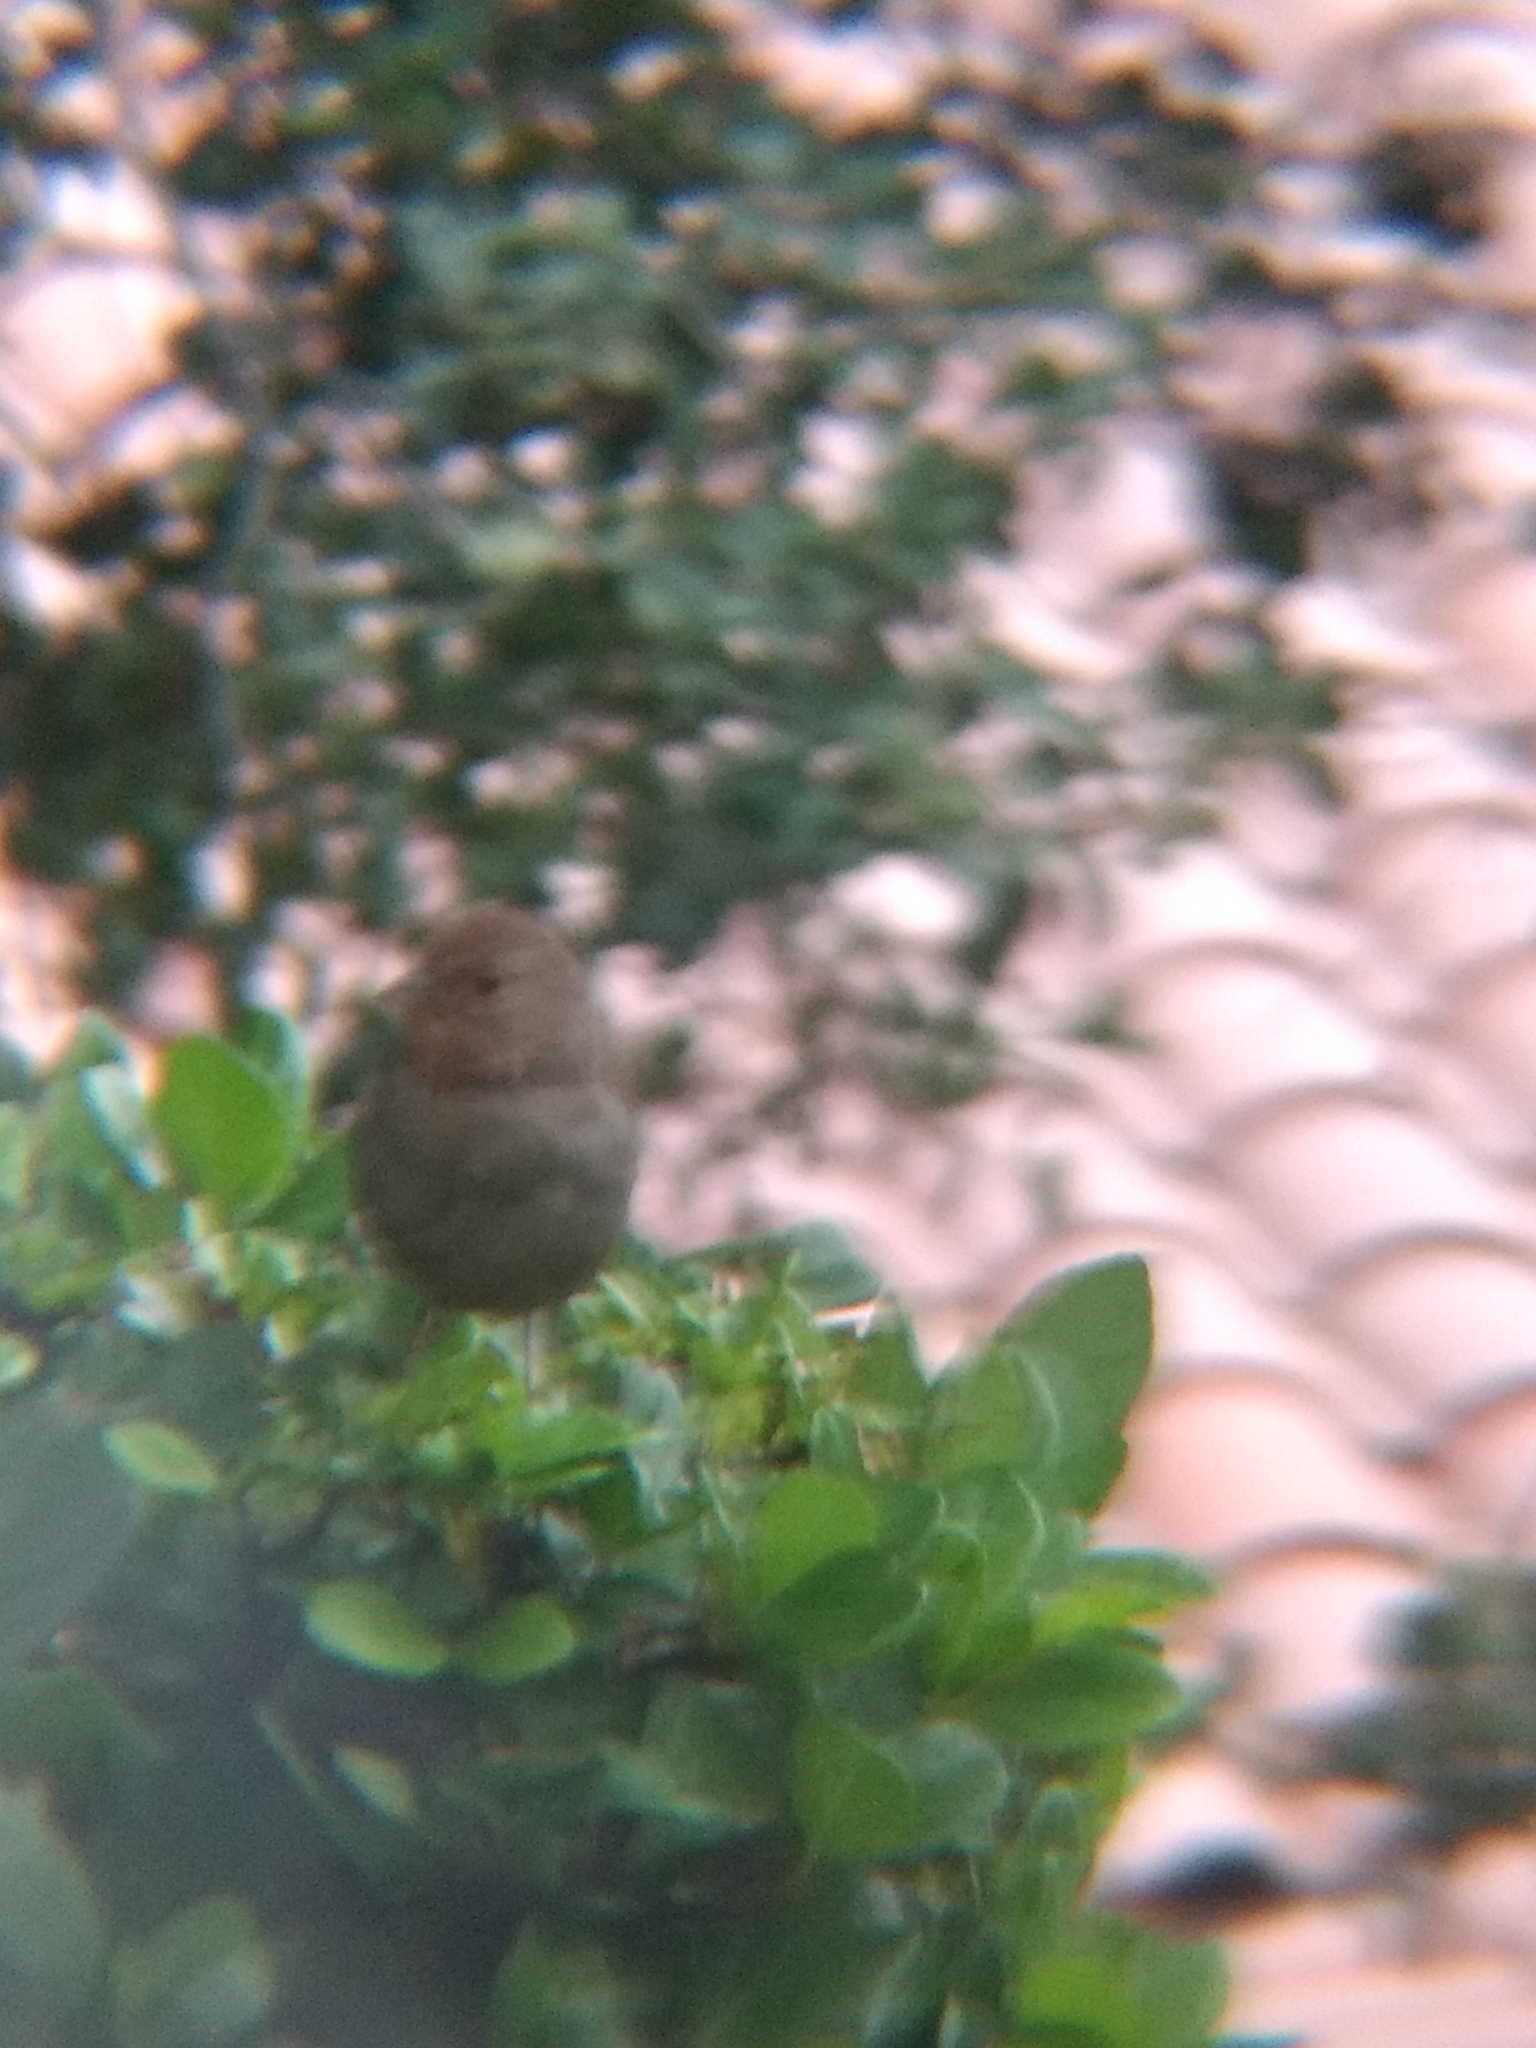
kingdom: Animalia
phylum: Chordata
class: Aves
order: Passeriformes
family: Passerellidae
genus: Melozone
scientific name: Melozone crissalis
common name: California towhee
